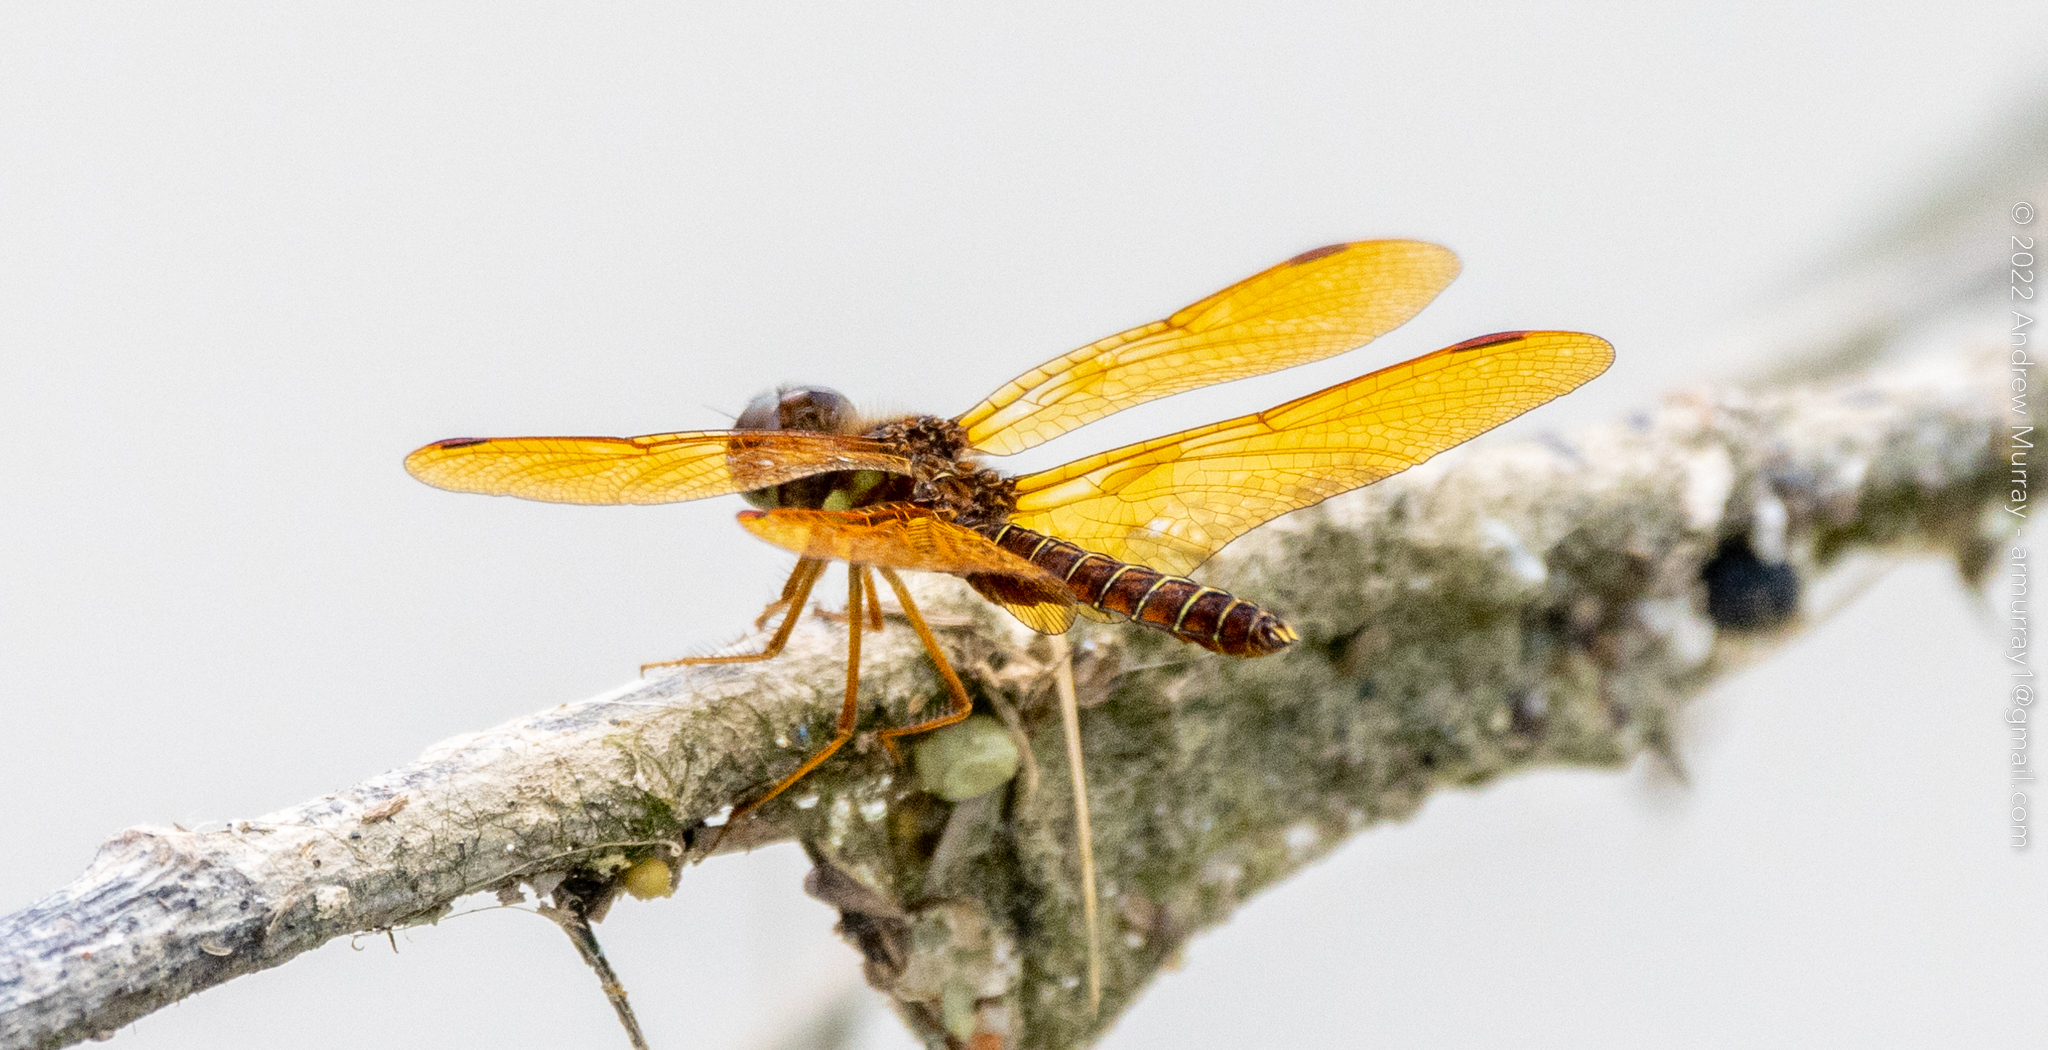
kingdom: Animalia
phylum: Arthropoda
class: Insecta
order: Odonata
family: Libellulidae
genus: Perithemis
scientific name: Perithemis tenera
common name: Eastern amberwing
